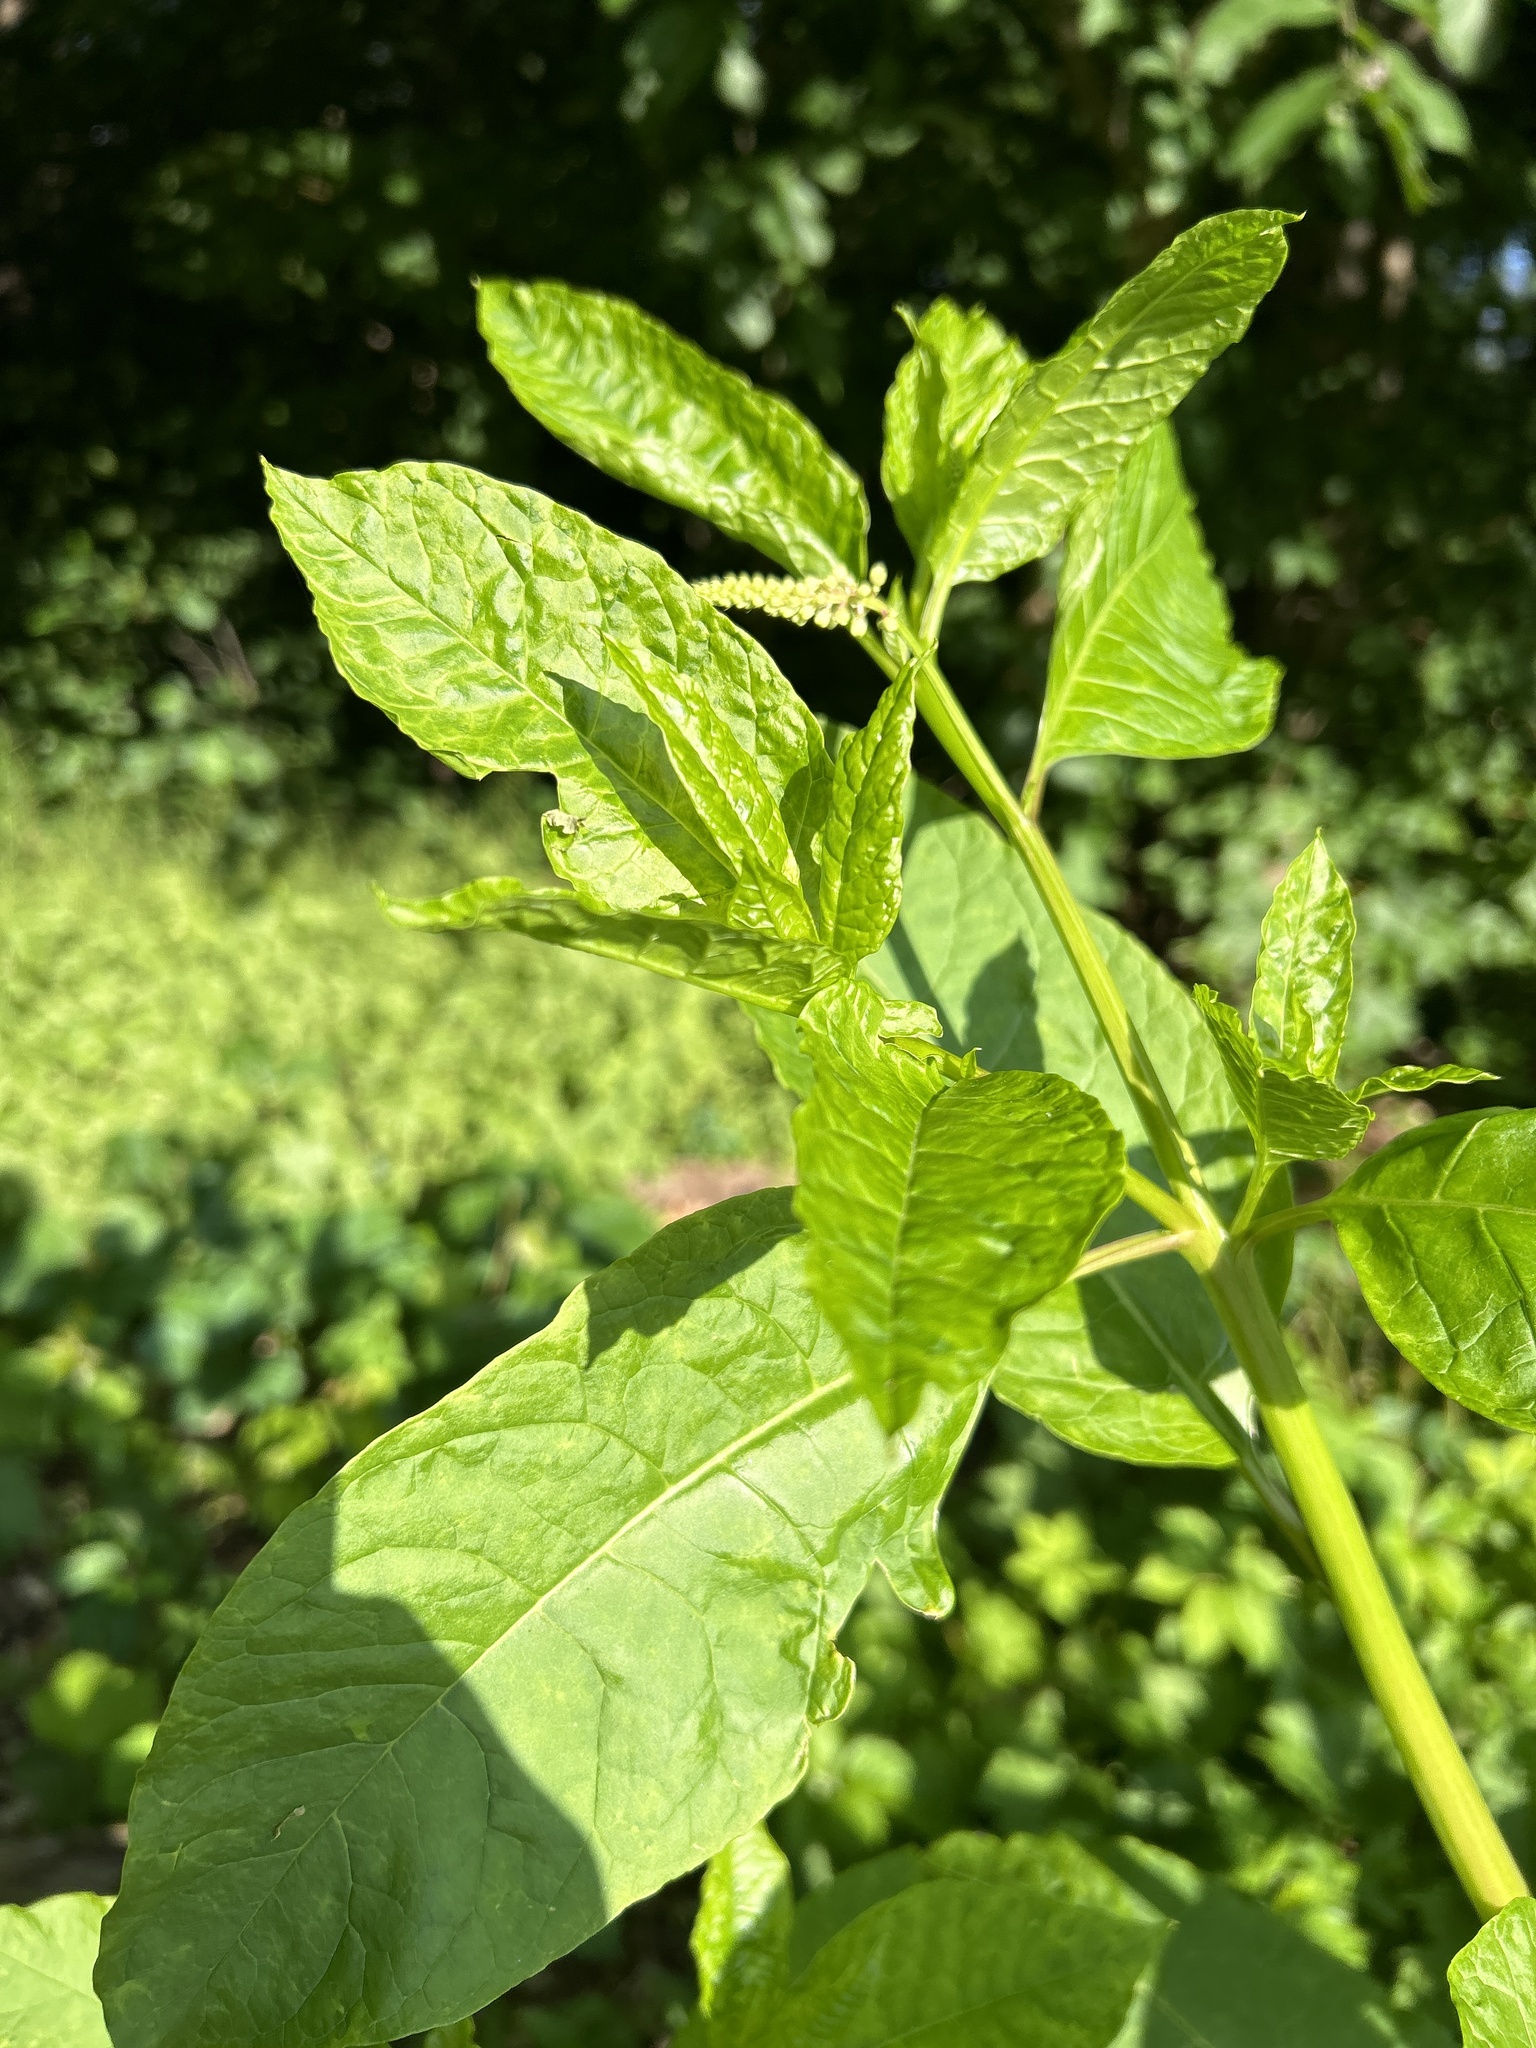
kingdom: Plantae
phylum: Tracheophyta
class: Magnoliopsida
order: Caryophyllales
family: Phytolaccaceae
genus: Phytolacca
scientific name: Phytolacca americana
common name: American pokeweed
